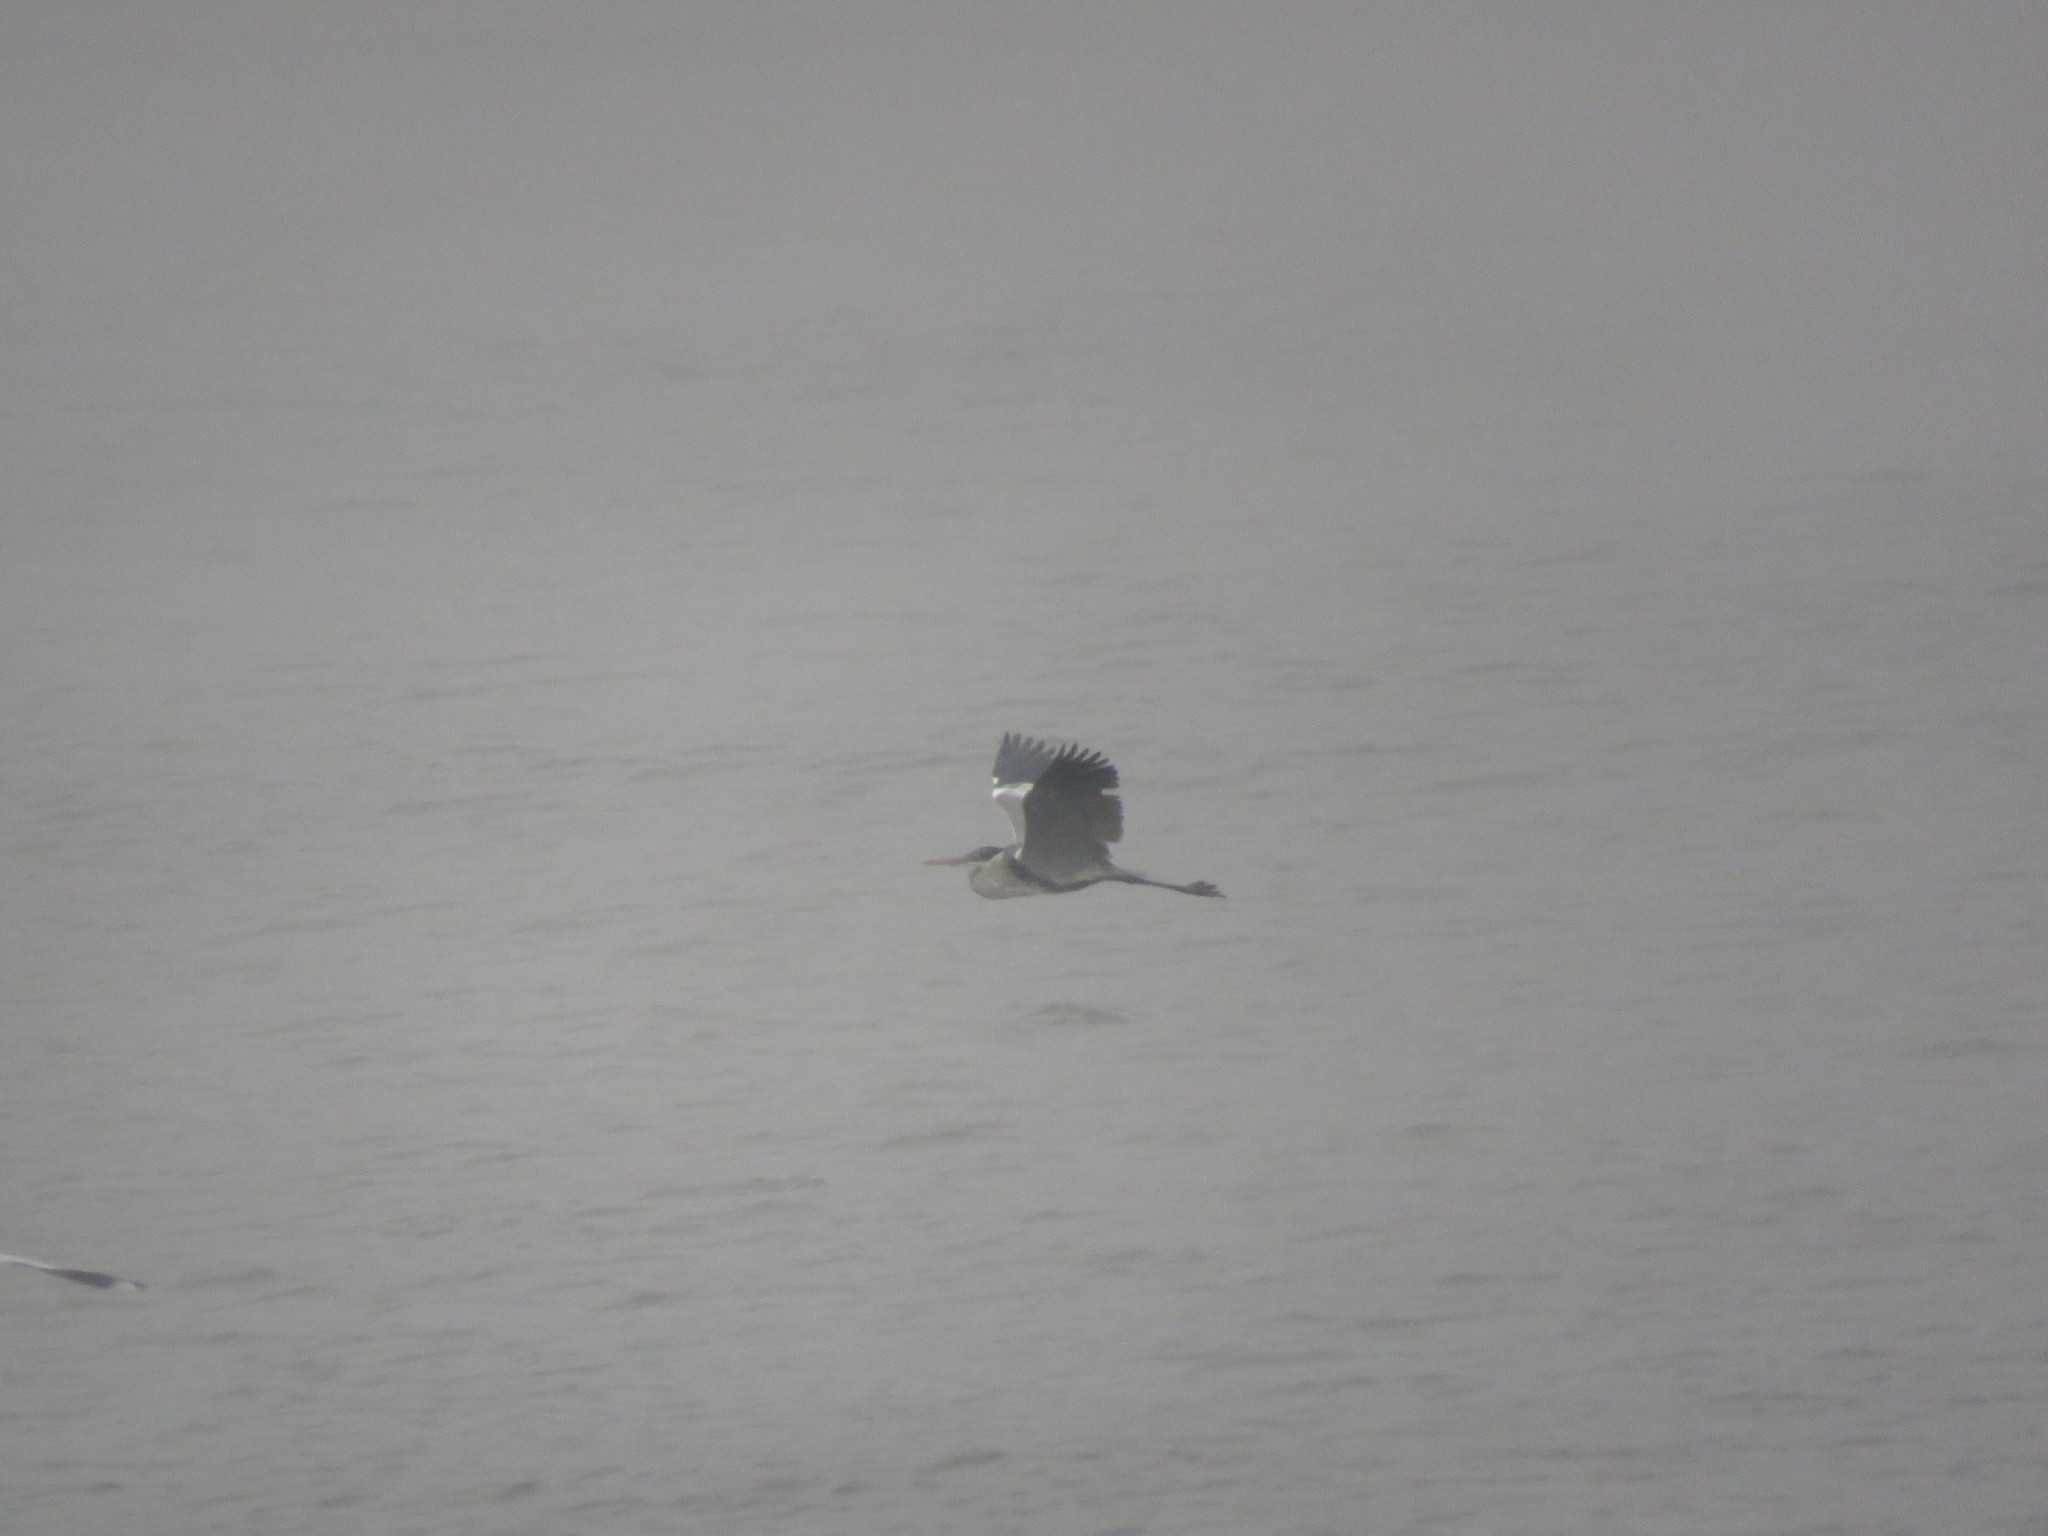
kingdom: Animalia
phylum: Chordata
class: Aves
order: Pelecaniformes
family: Ardeidae
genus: Ardea
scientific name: Ardea cocoi
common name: Cocoi heron
